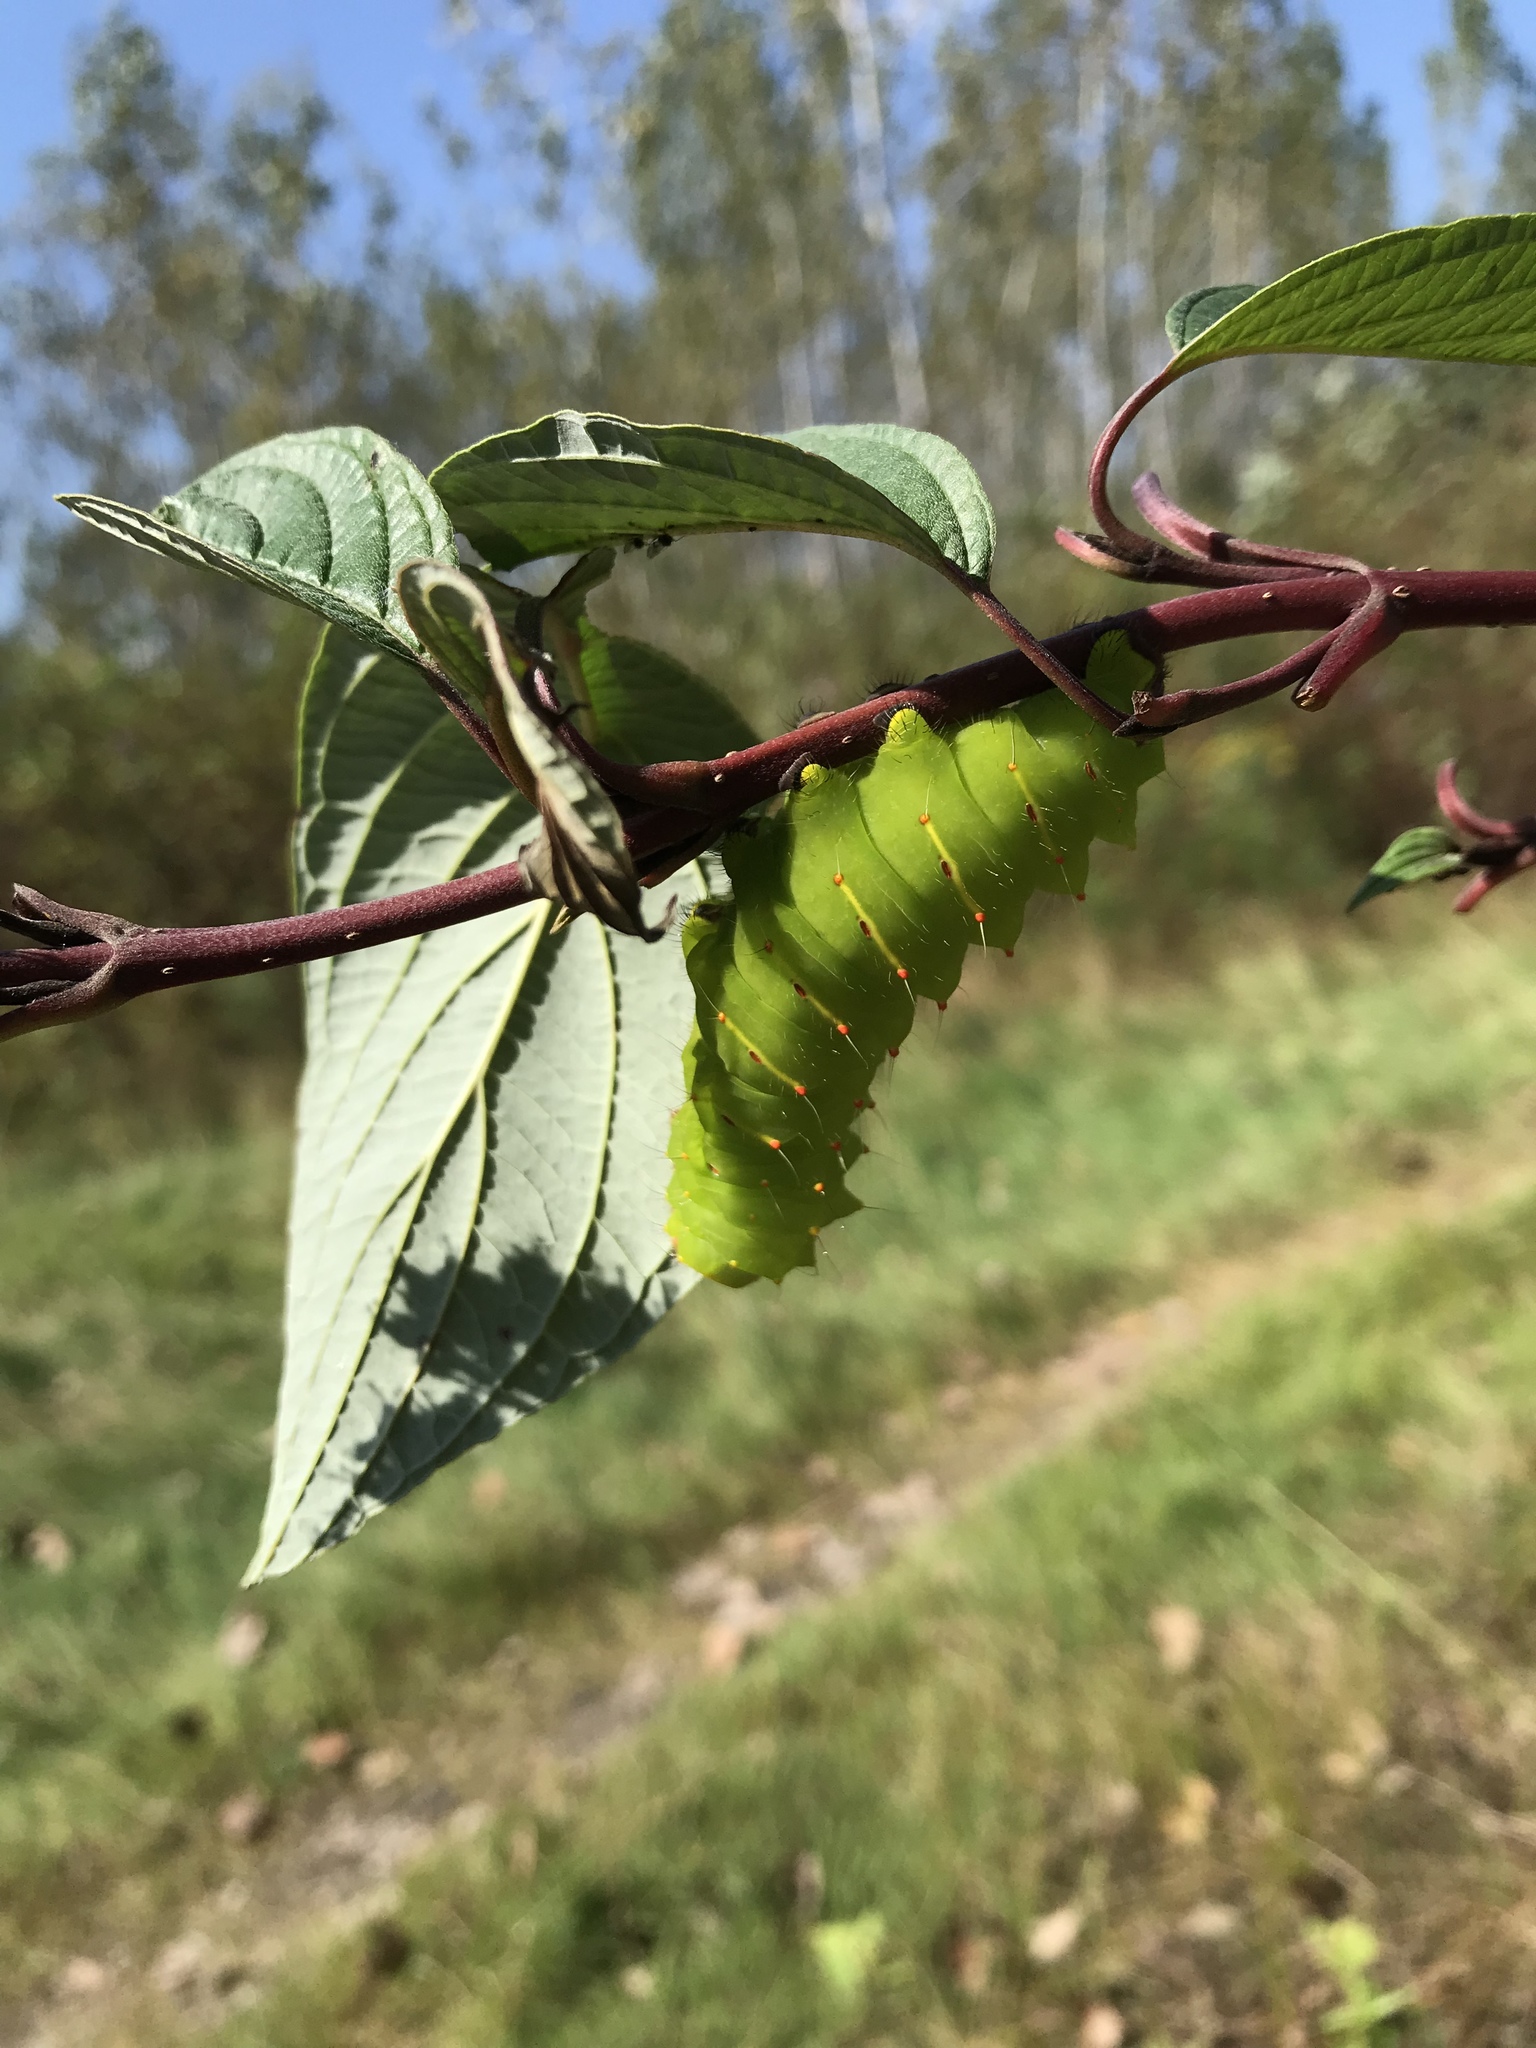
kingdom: Animalia
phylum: Arthropoda
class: Insecta
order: Lepidoptera
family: Saturniidae
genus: Antheraea
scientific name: Antheraea polyphemus
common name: Polyphemus moth
